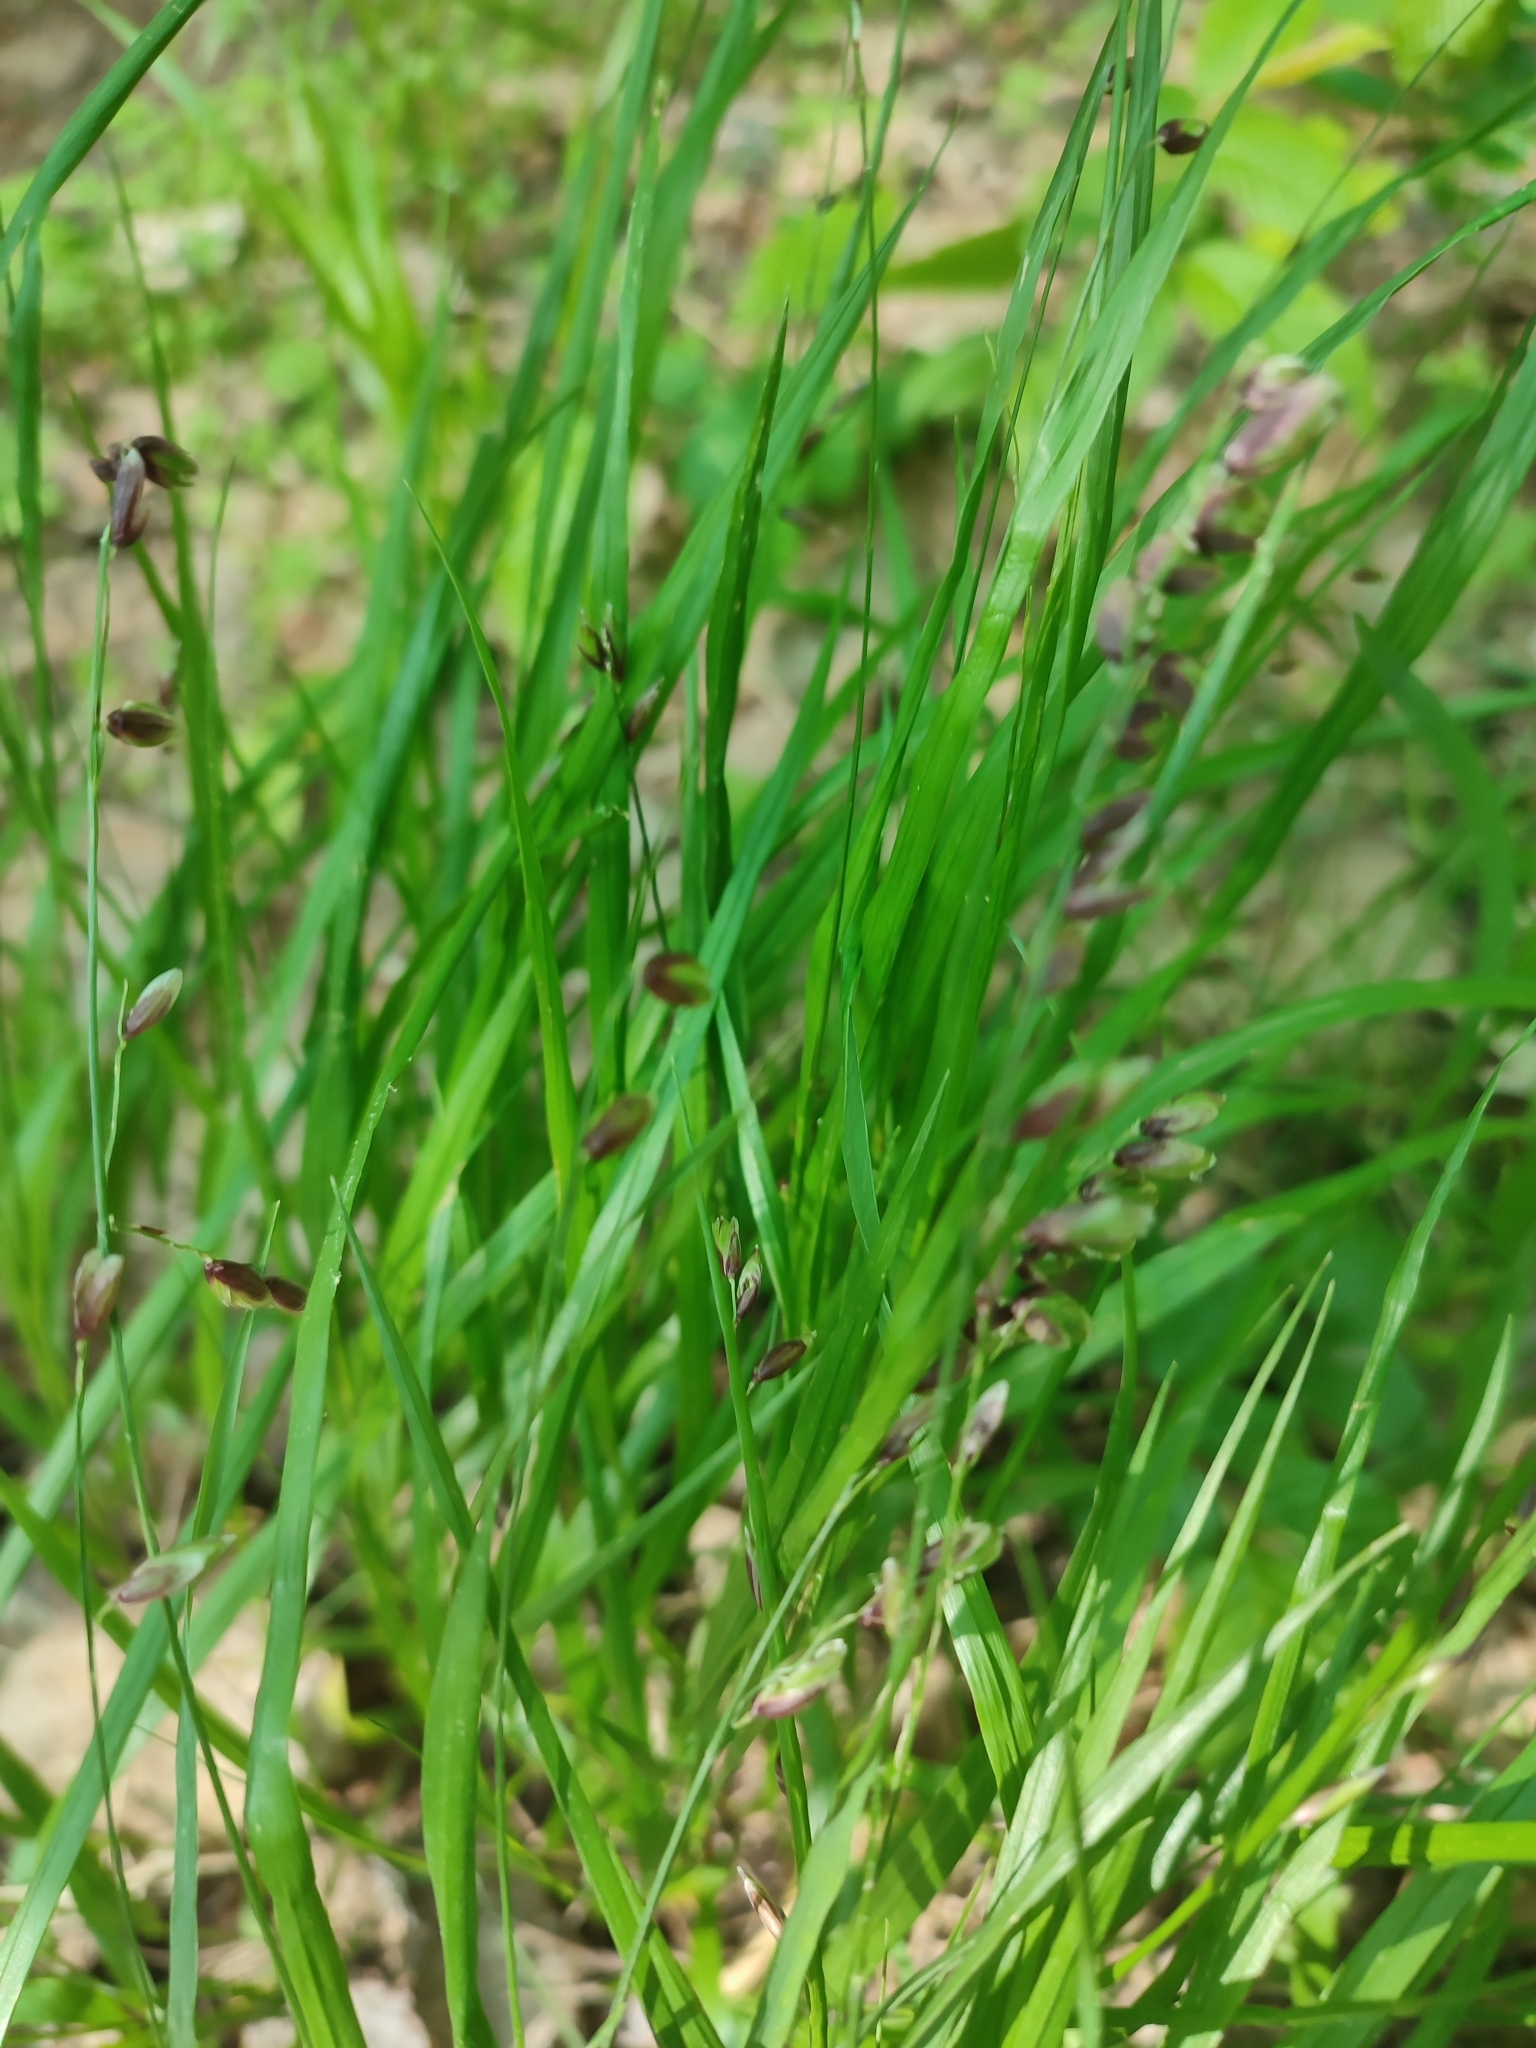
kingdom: Plantae
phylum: Tracheophyta
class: Liliopsida
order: Poales
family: Poaceae
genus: Melica
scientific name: Melica nutans
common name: Mountain melick
